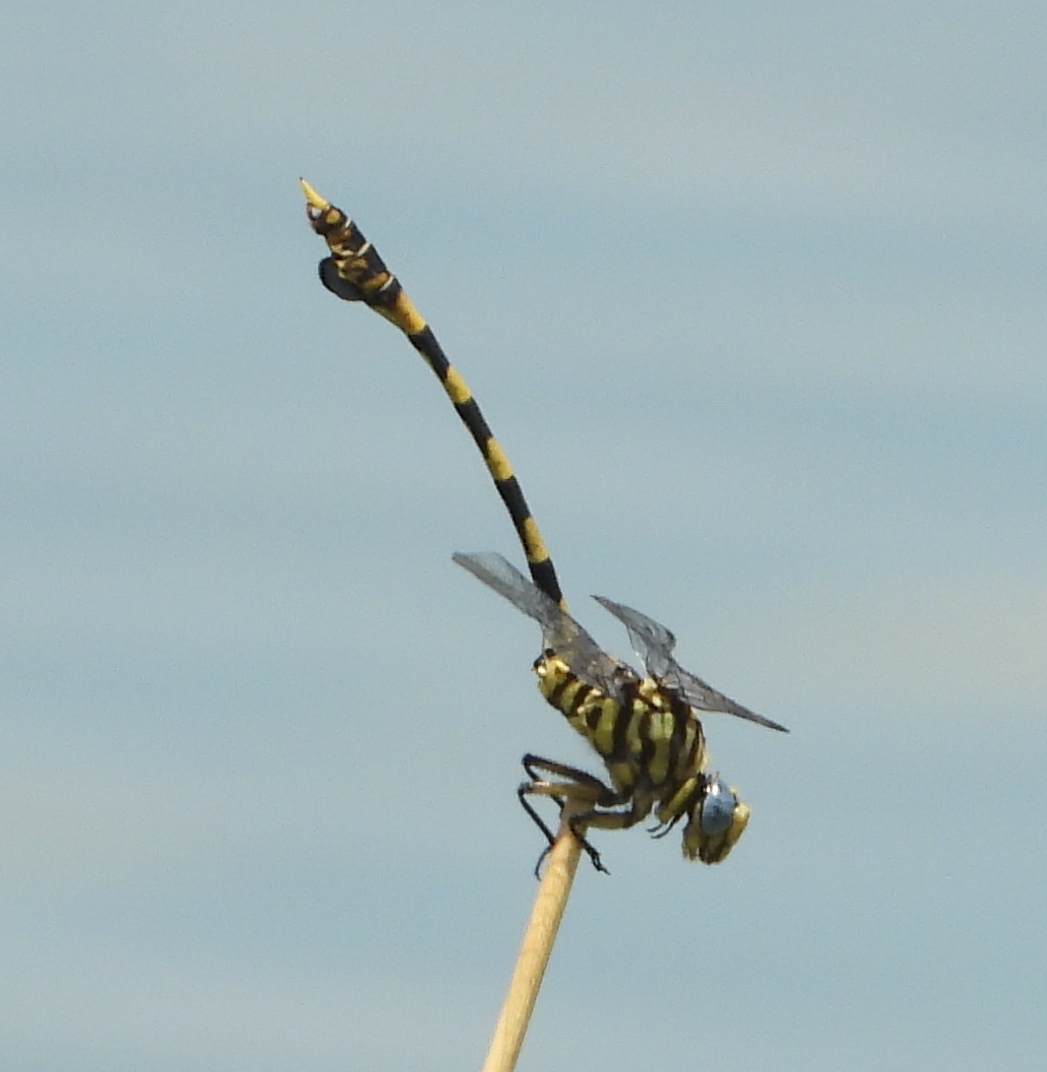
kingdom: Animalia
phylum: Arthropoda
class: Insecta
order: Odonata
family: Gomphidae
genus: Ictinogomphus
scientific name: Ictinogomphus ferox
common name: Common tiger
